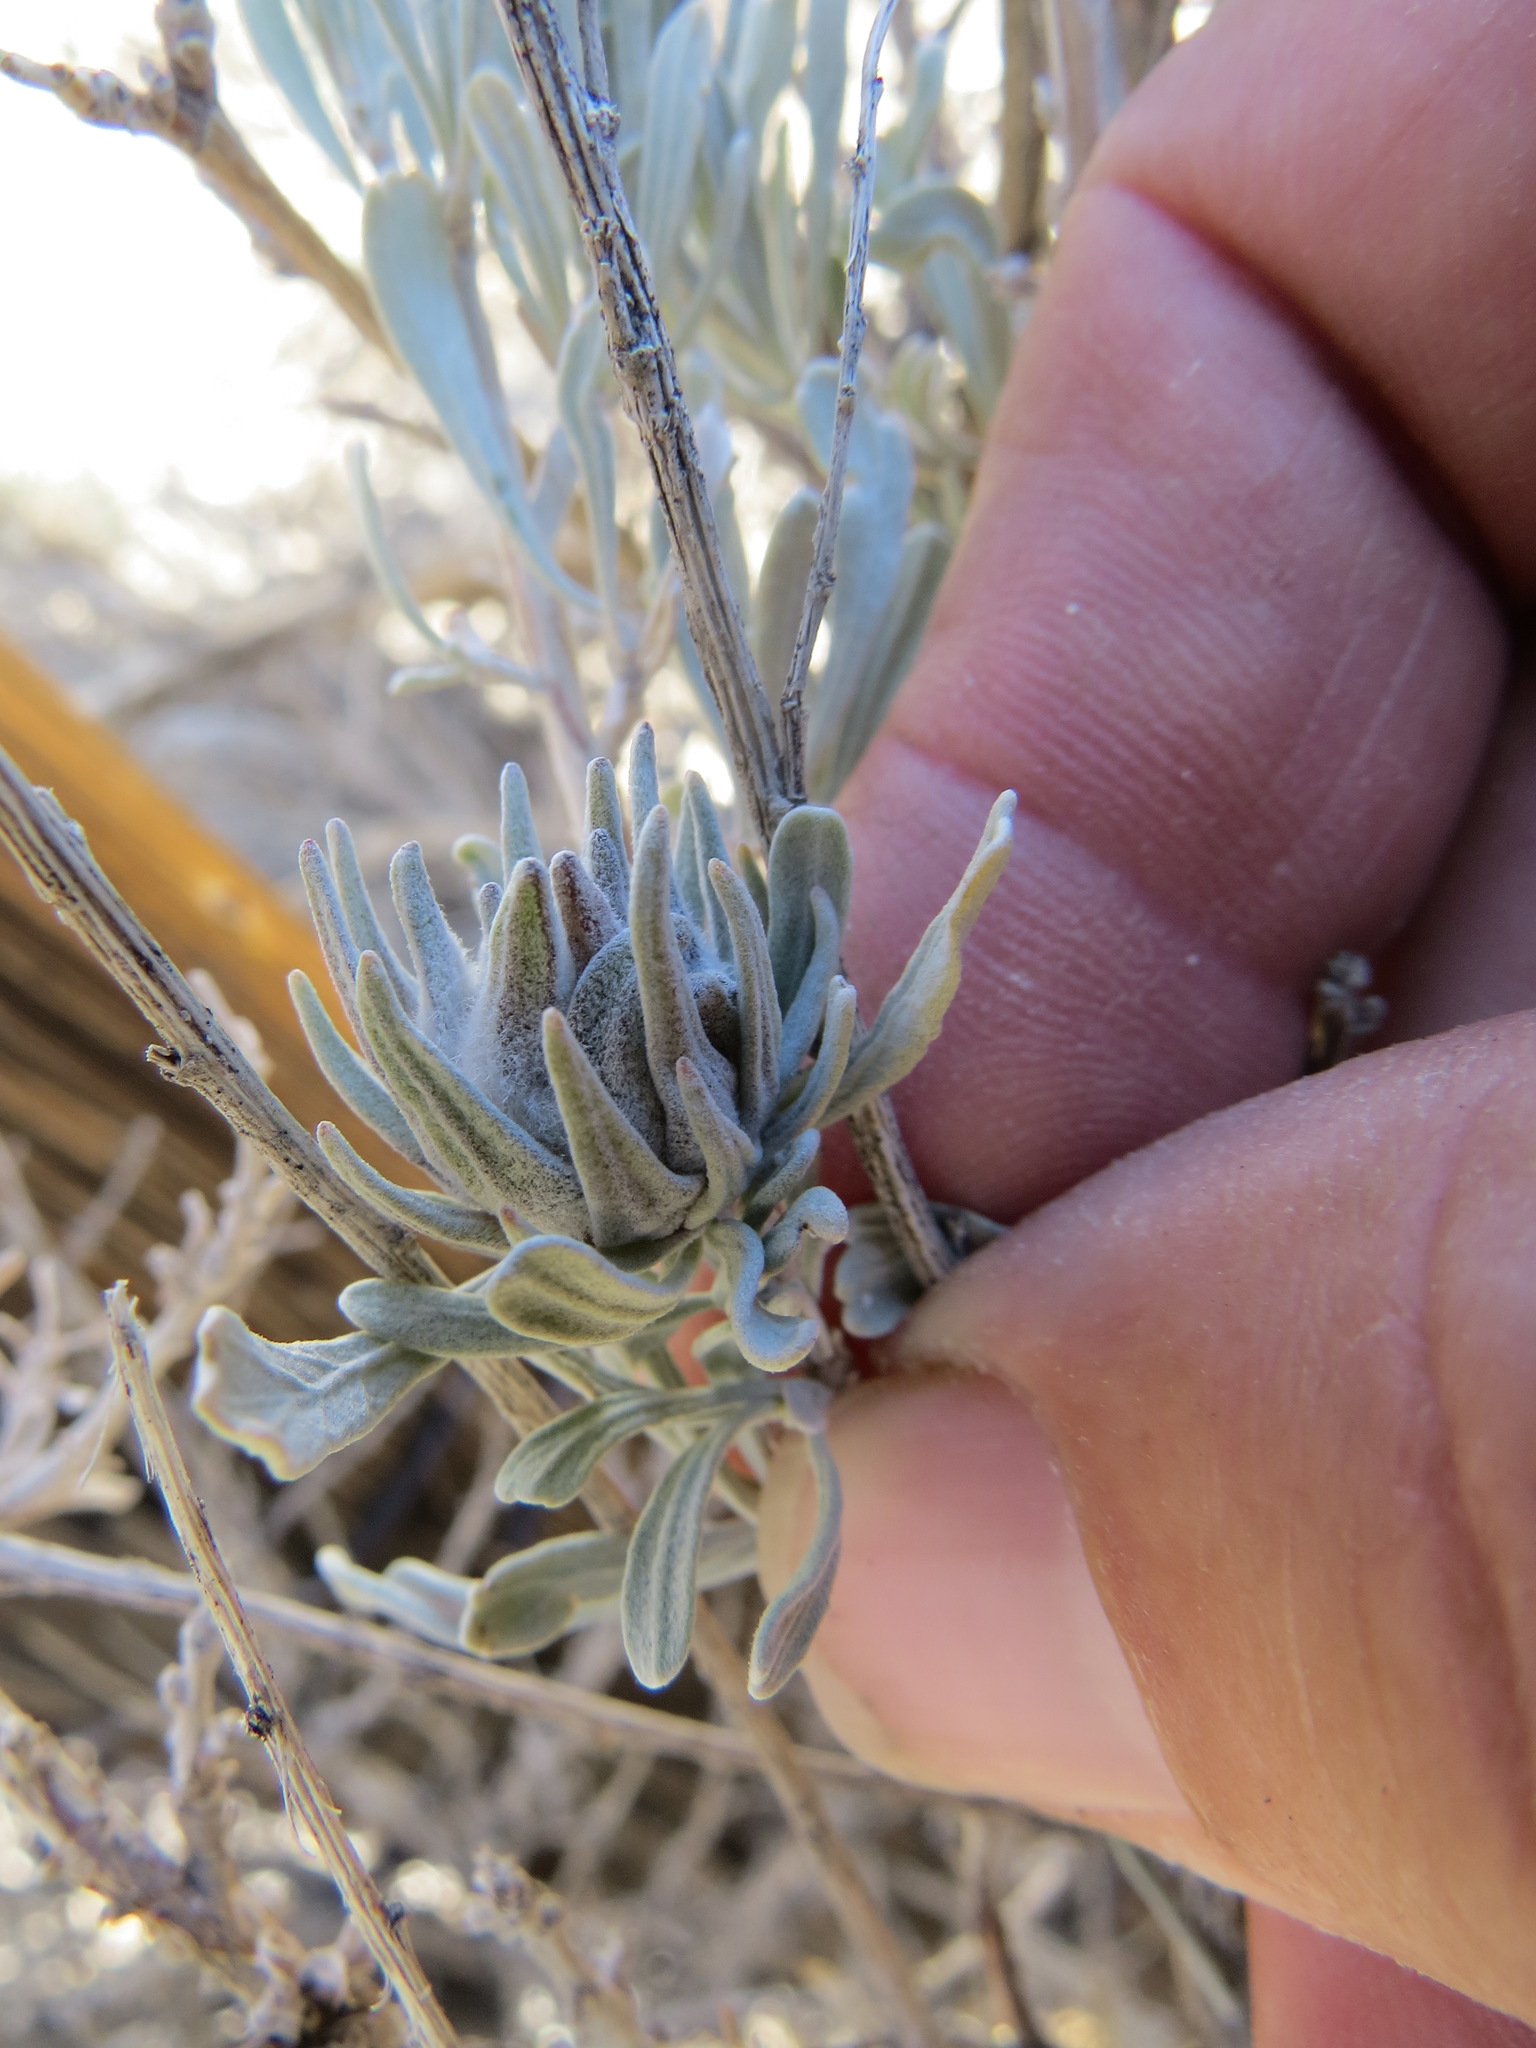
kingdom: Animalia
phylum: Arthropoda
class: Insecta
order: Diptera
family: Cecidomyiidae
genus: Rhopalomyia
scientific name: Rhopalomyia anthoides
